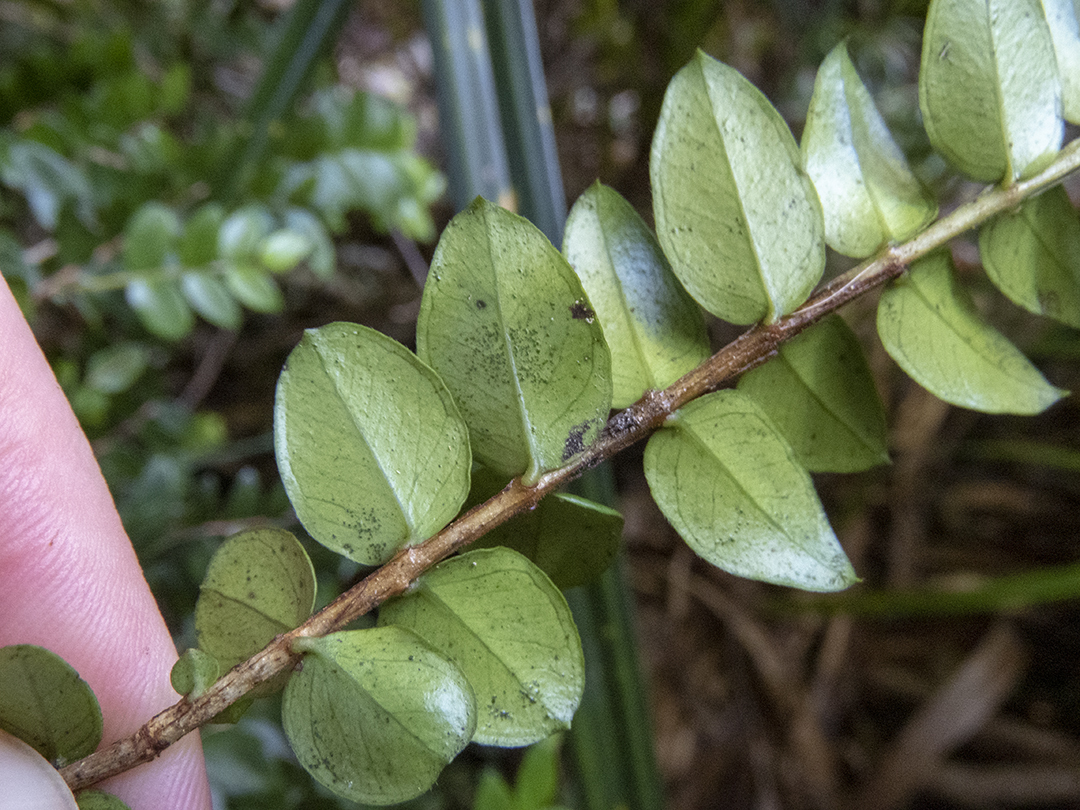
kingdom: Plantae
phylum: Tracheophyta
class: Magnoliopsida
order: Myrtales
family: Myrtaceae
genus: Metrosideros
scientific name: Metrosideros diffusa
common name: Small ratavine
